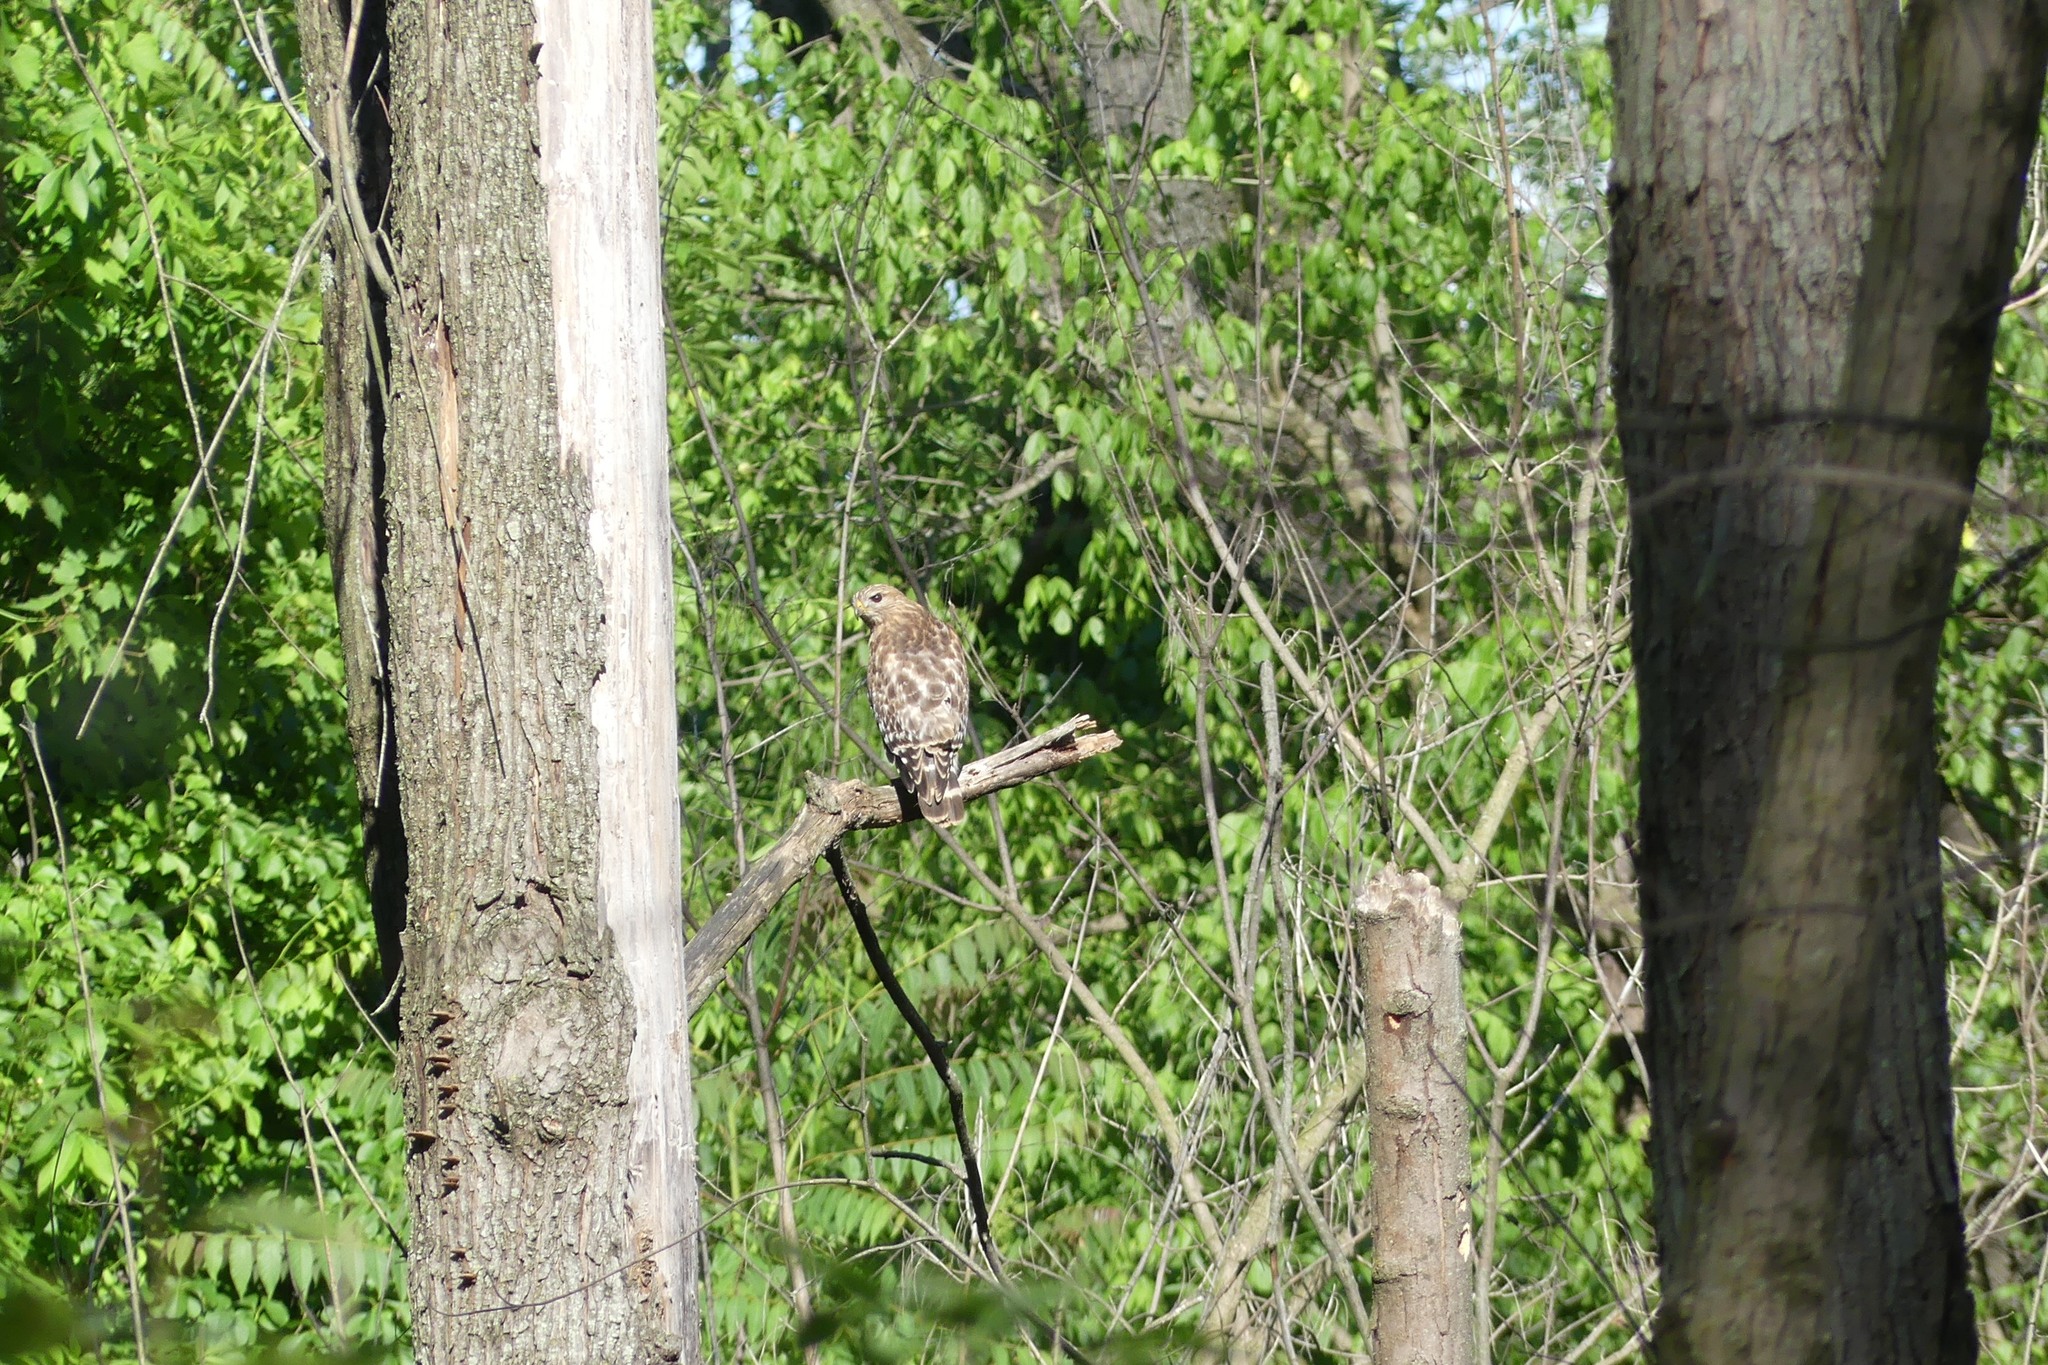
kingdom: Animalia
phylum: Chordata
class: Aves
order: Accipitriformes
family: Accipitridae
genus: Buteo
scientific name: Buteo lineatus
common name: Red-shouldered hawk
